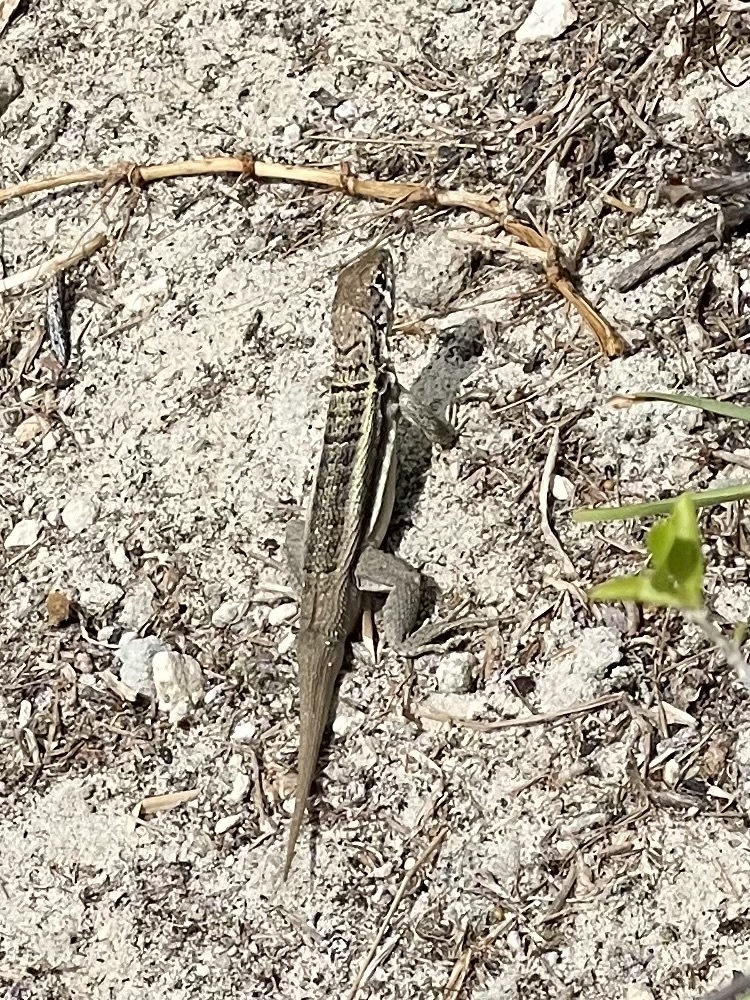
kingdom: Animalia
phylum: Chordata
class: Squamata
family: Leiocephalidae
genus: Leiocephalus
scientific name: Leiocephalus psammodromus
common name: Bastion cay curlytail lizard
